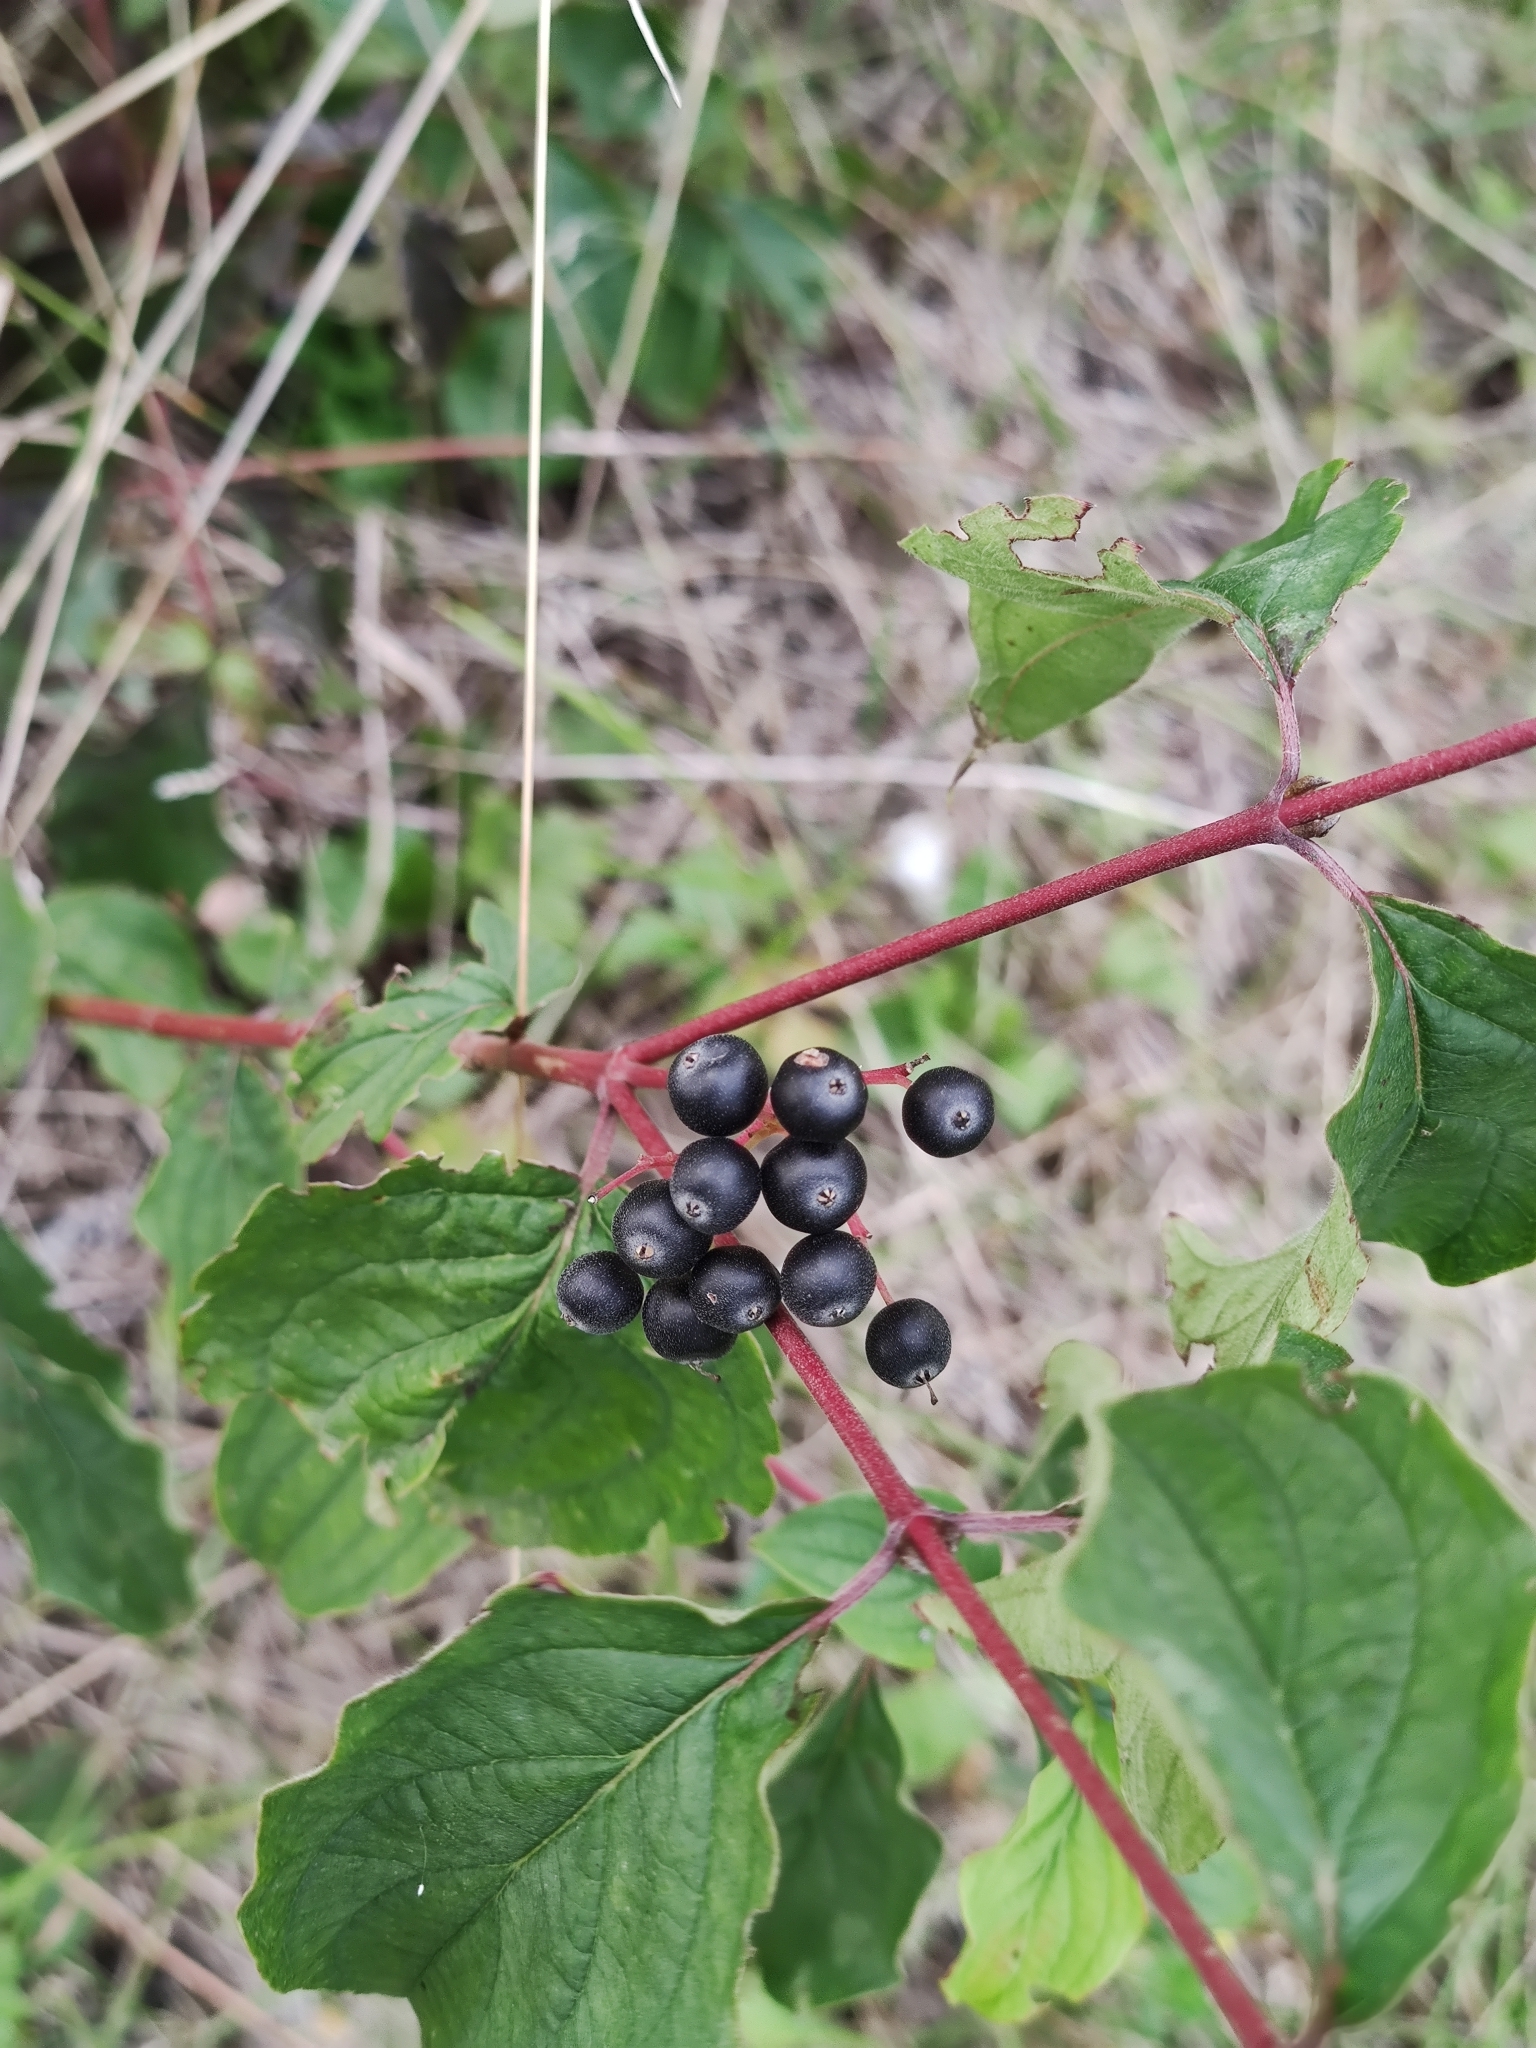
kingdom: Plantae
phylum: Tracheophyta
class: Magnoliopsida
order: Cornales
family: Cornaceae
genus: Cornus
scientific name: Cornus sanguinea
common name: Dogwood
